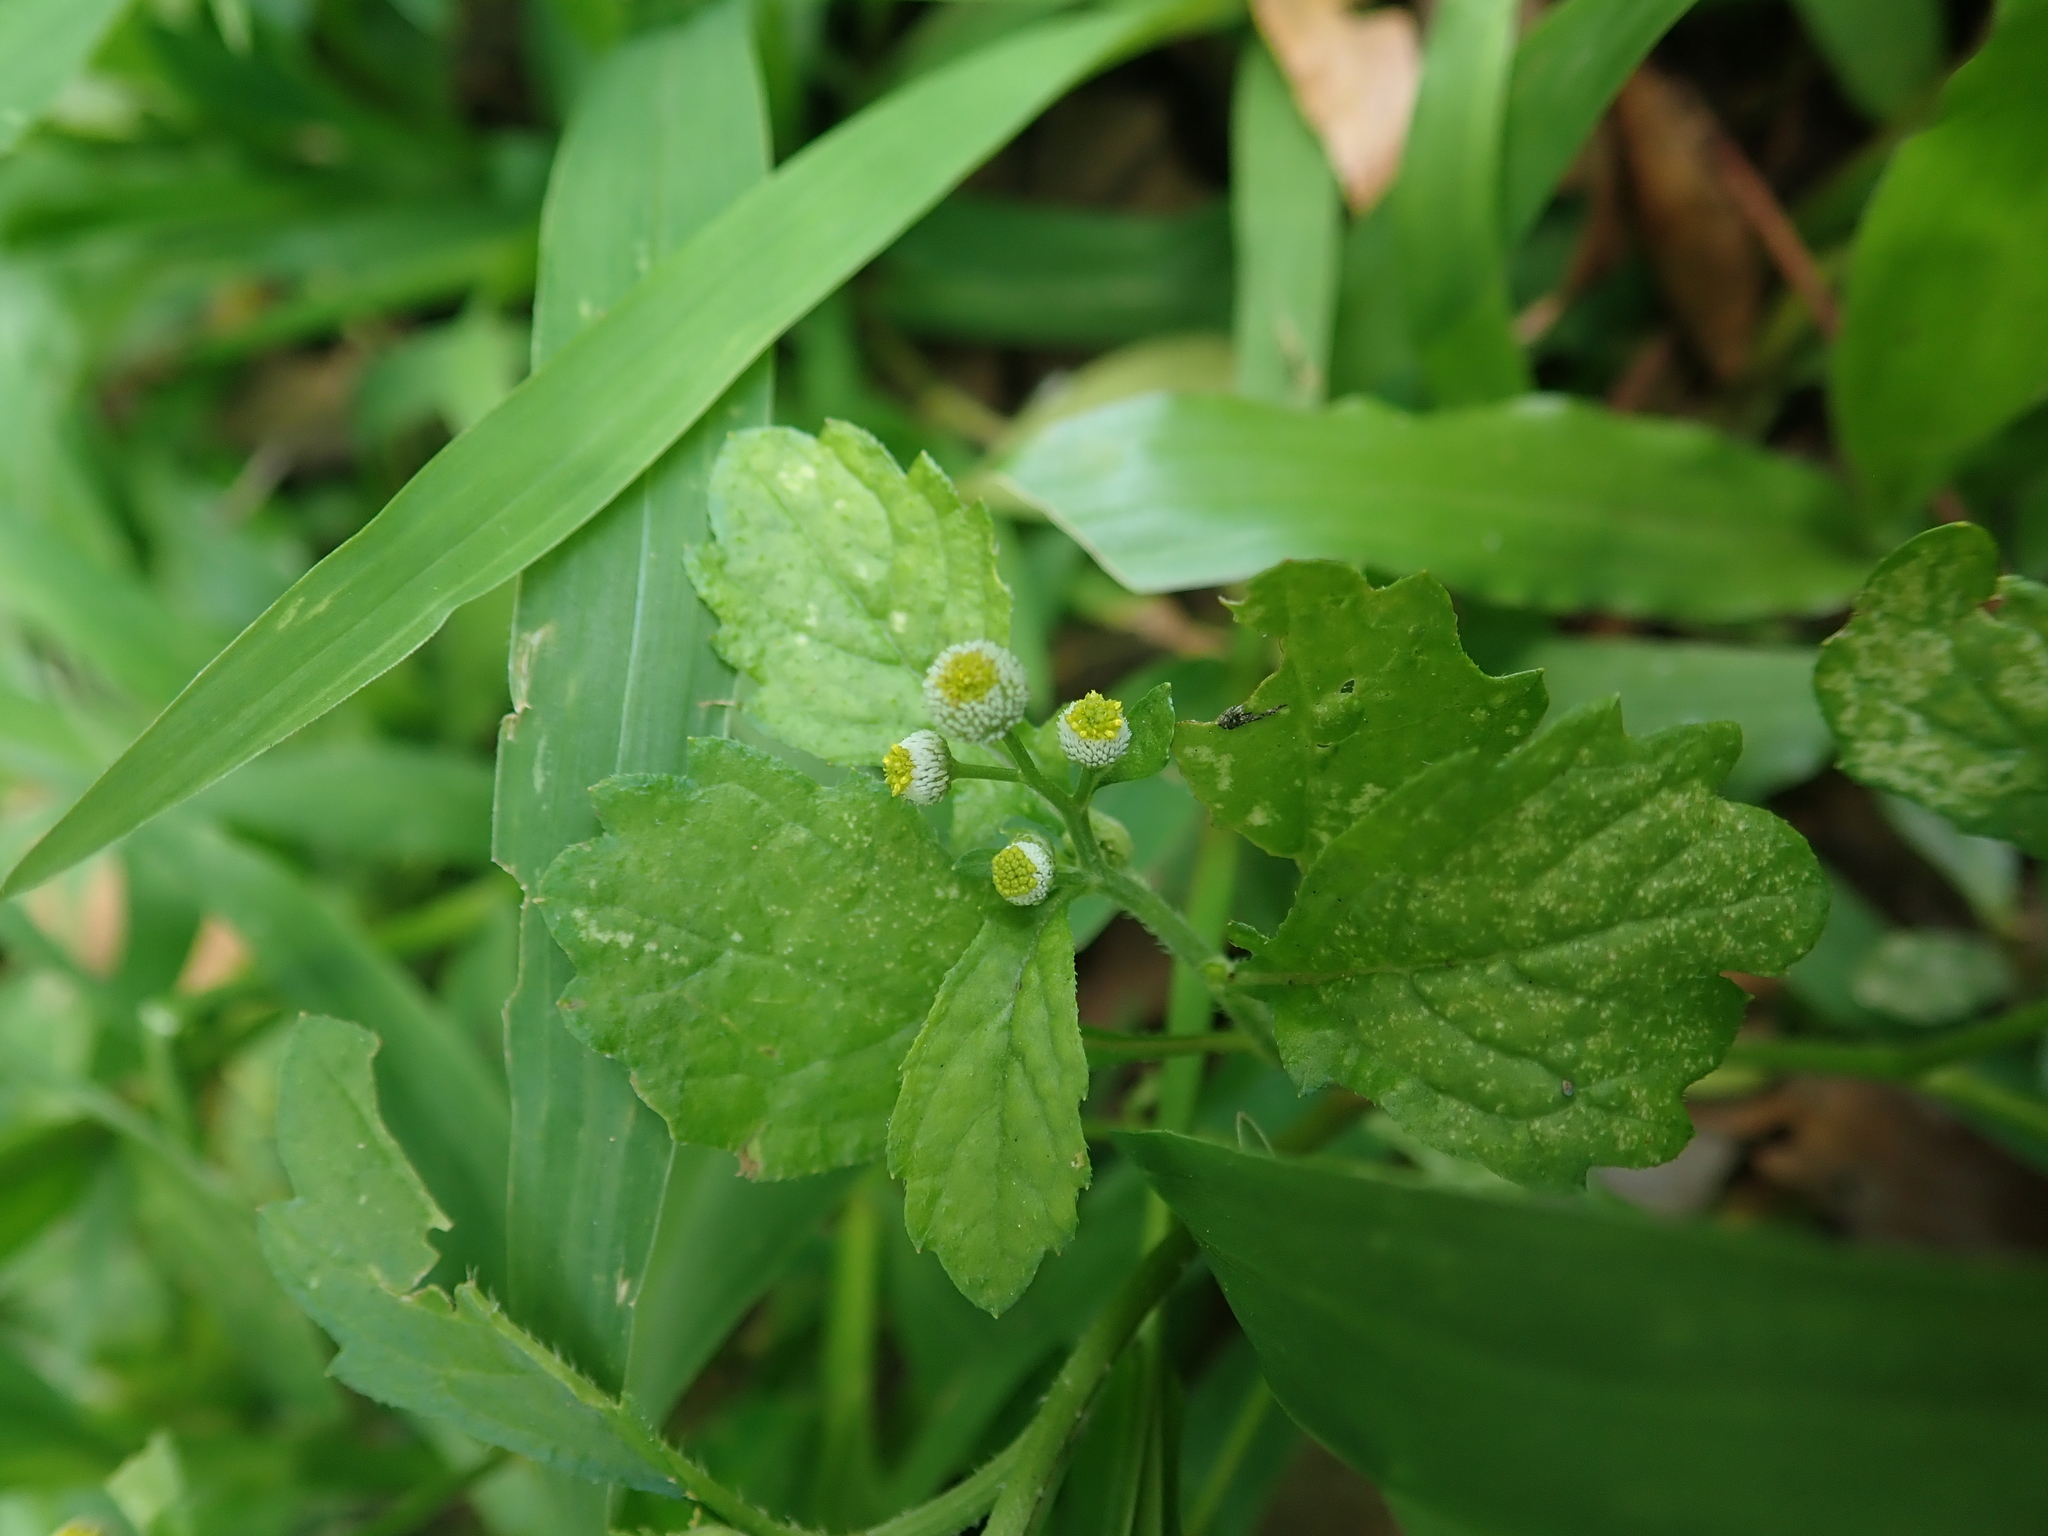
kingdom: Plantae
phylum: Tracheophyta
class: Magnoliopsida
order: Asterales
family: Asteraceae
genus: Dichrocephala
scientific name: Dichrocephala integrifolia
